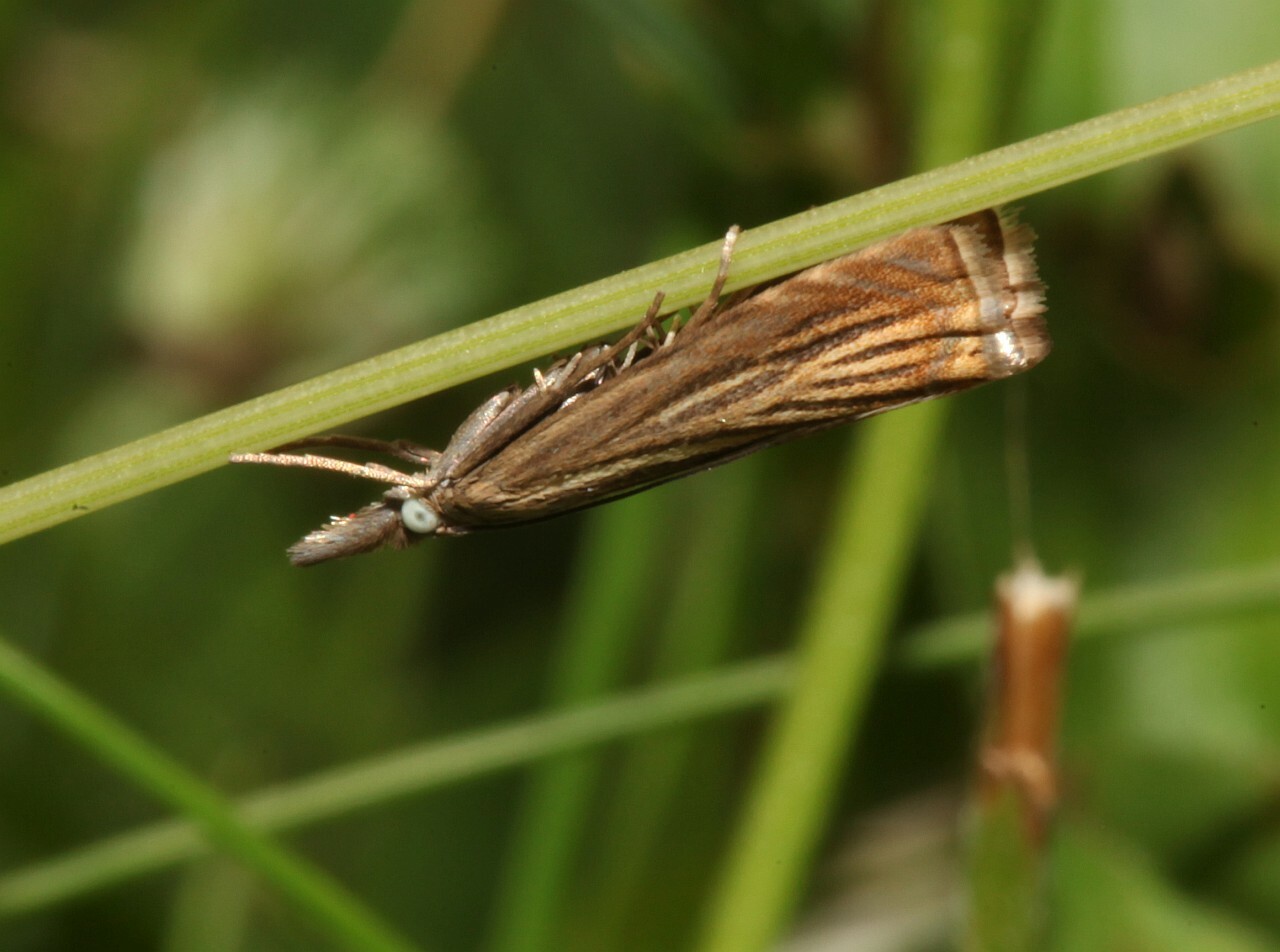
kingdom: Animalia
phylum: Arthropoda
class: Insecta
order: Lepidoptera
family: Crambidae
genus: Chrysoteuchia
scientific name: Chrysoteuchia culmella
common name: Garden grass-veneer
